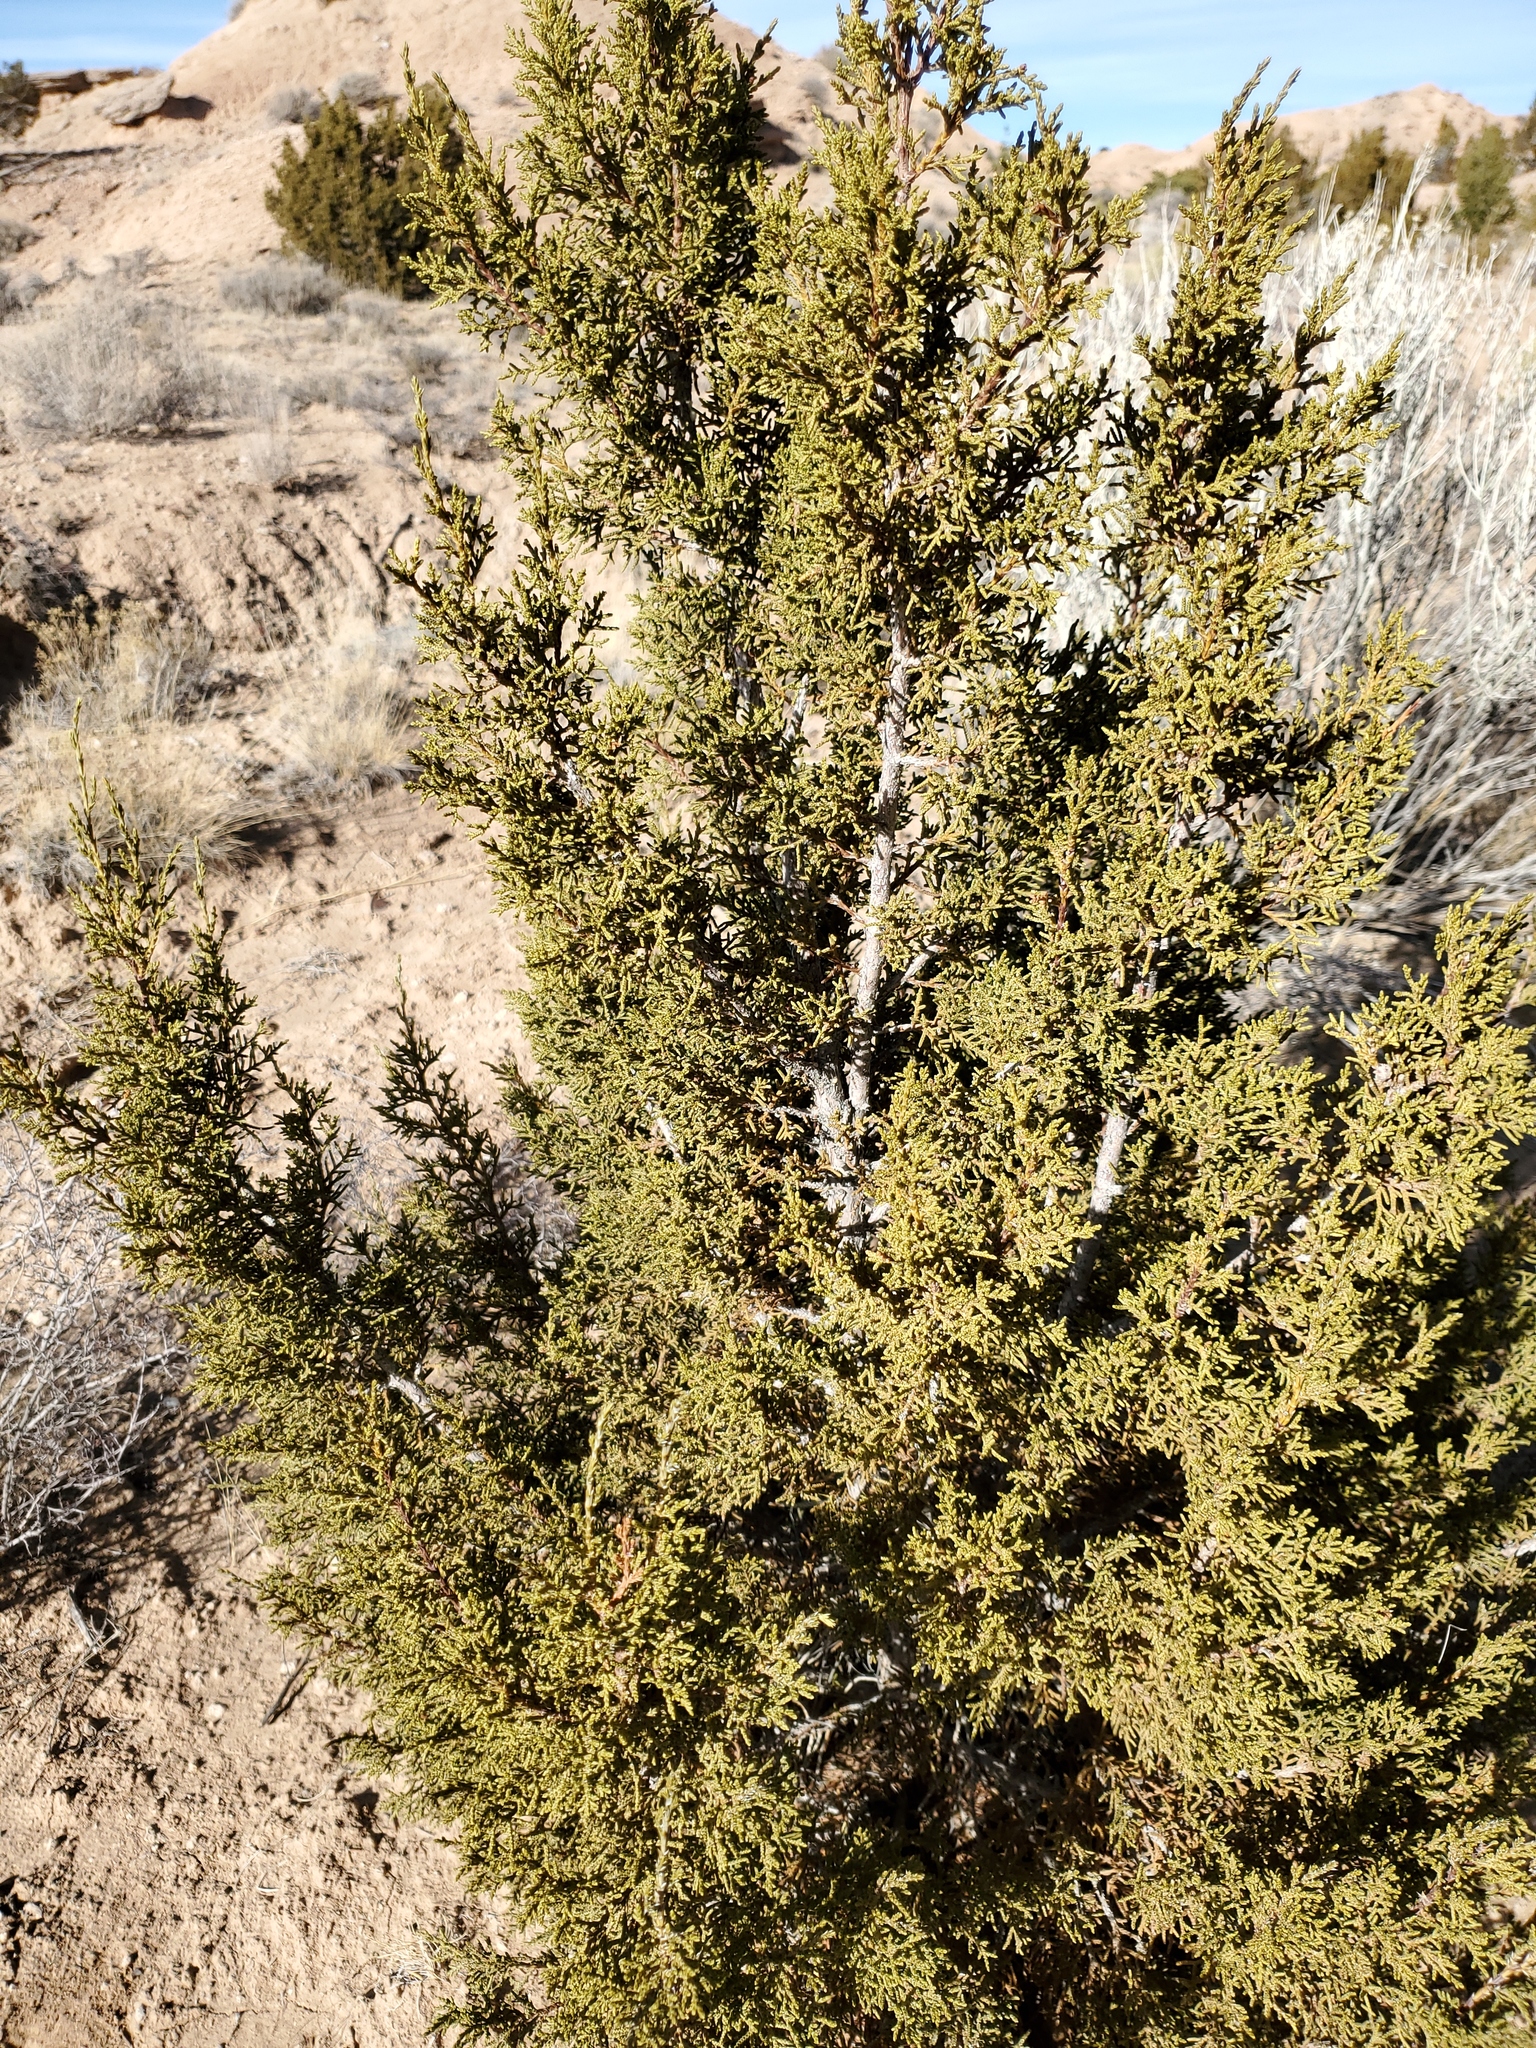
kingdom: Plantae
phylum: Tracheophyta
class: Pinopsida
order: Pinales
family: Cupressaceae
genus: Juniperus
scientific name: Juniperus monosperma
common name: One-seed juniper
